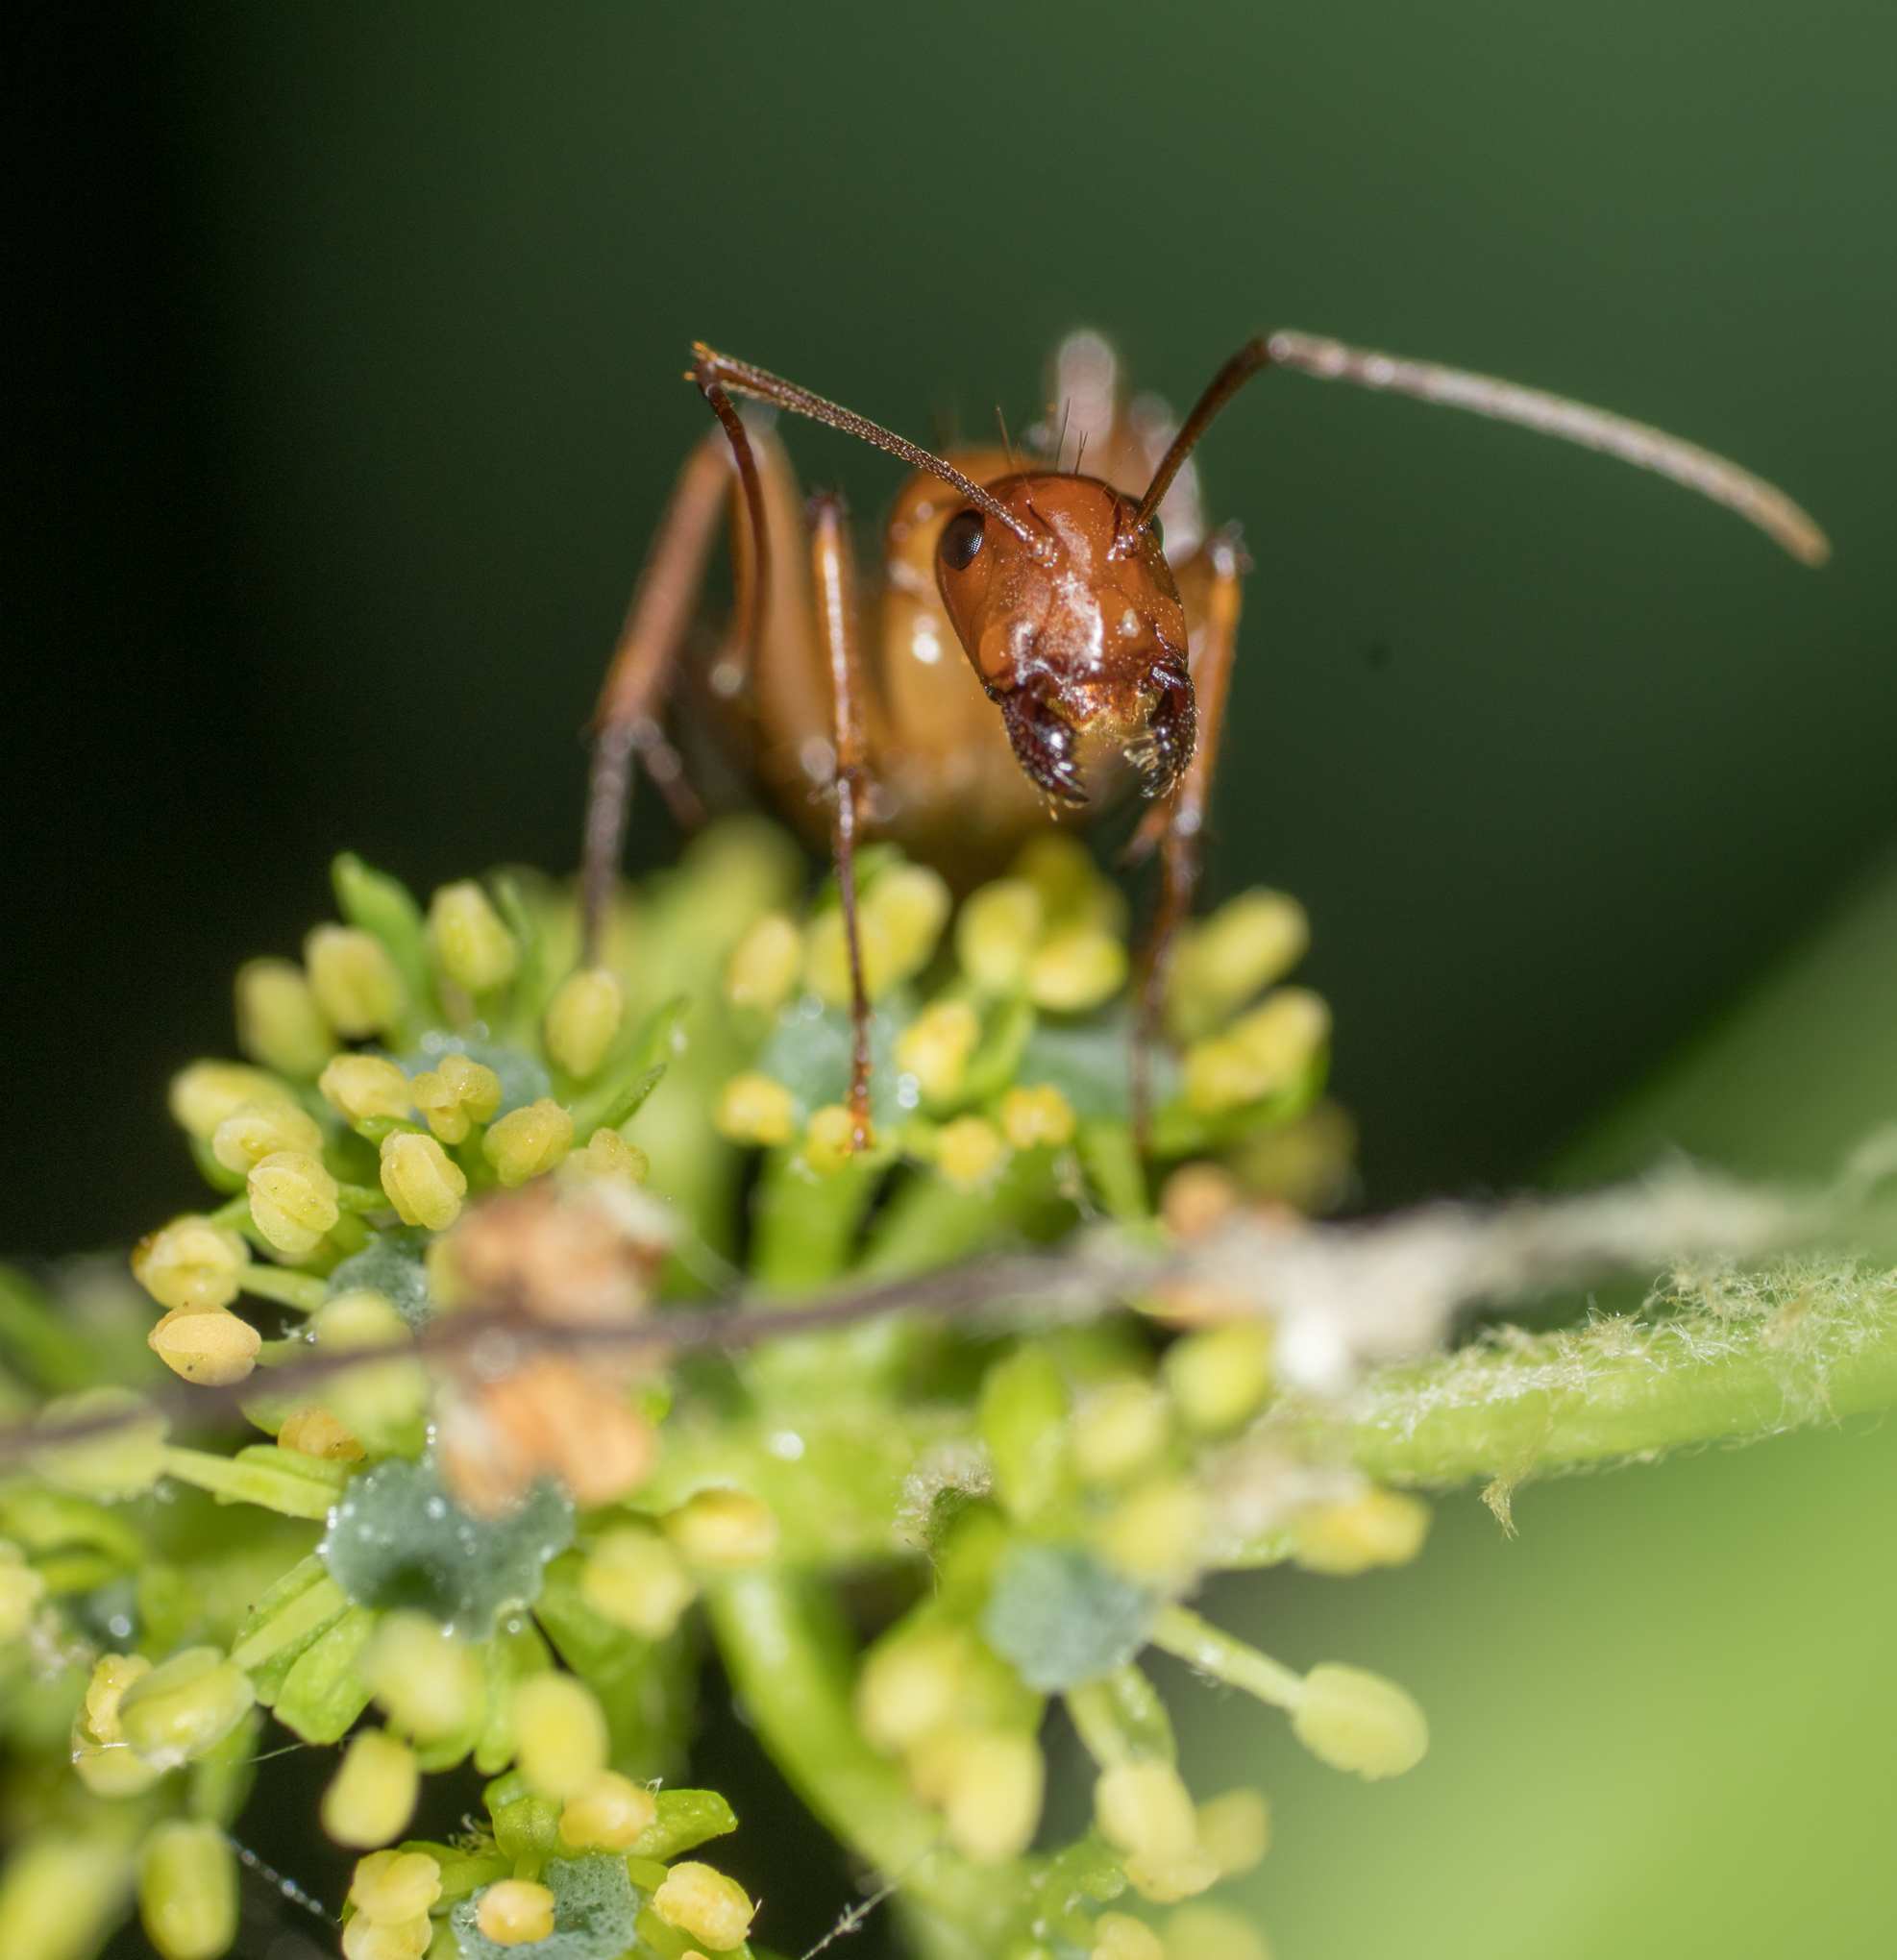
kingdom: Animalia
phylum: Arthropoda
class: Insecta
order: Hymenoptera
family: Formicidae
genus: Camponotus
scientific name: Camponotus castaneus
